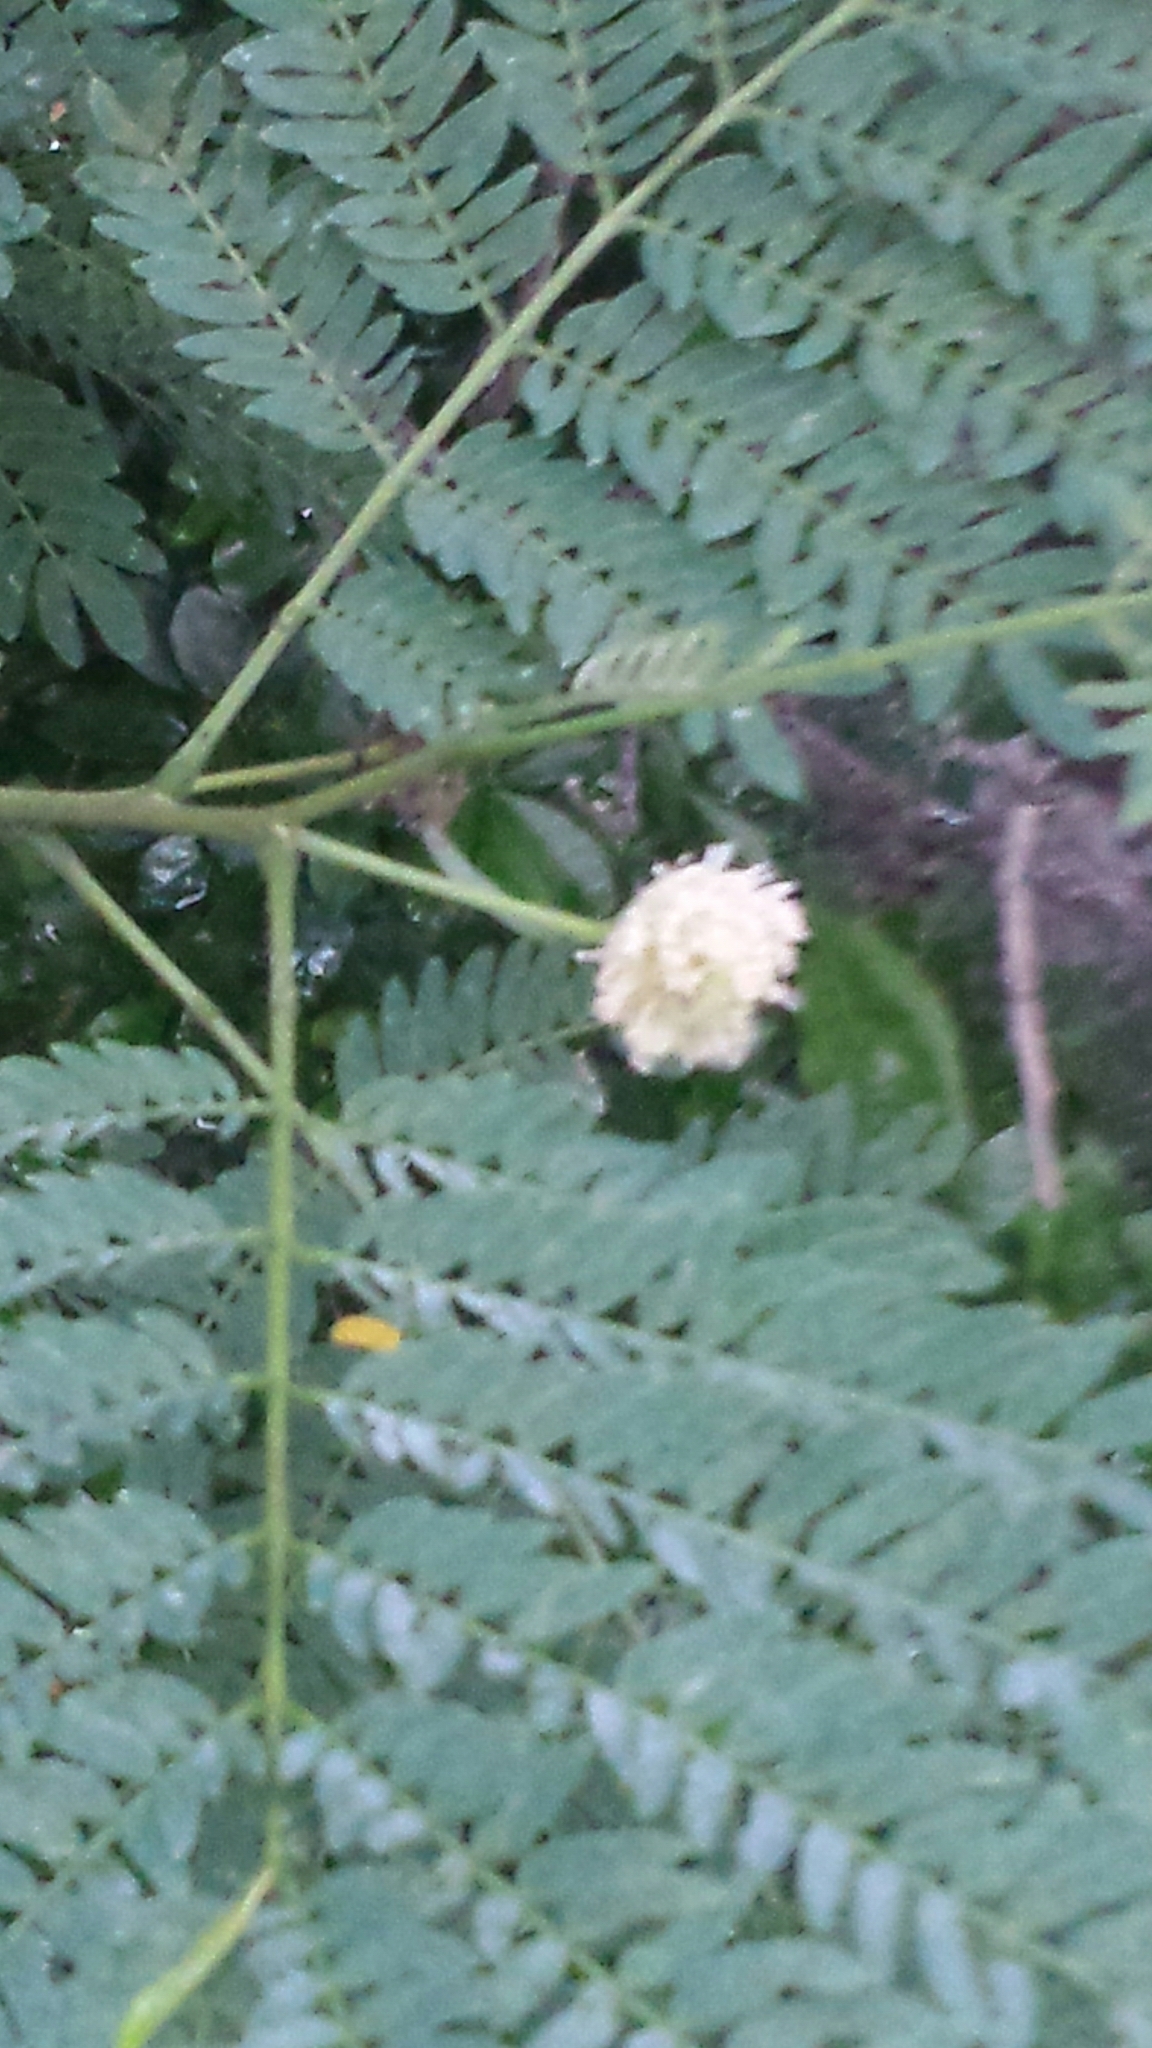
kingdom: Plantae
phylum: Tracheophyta
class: Magnoliopsida
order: Fabales
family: Fabaceae
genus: Leucaena
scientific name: Leucaena leucocephala
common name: White leadtree
